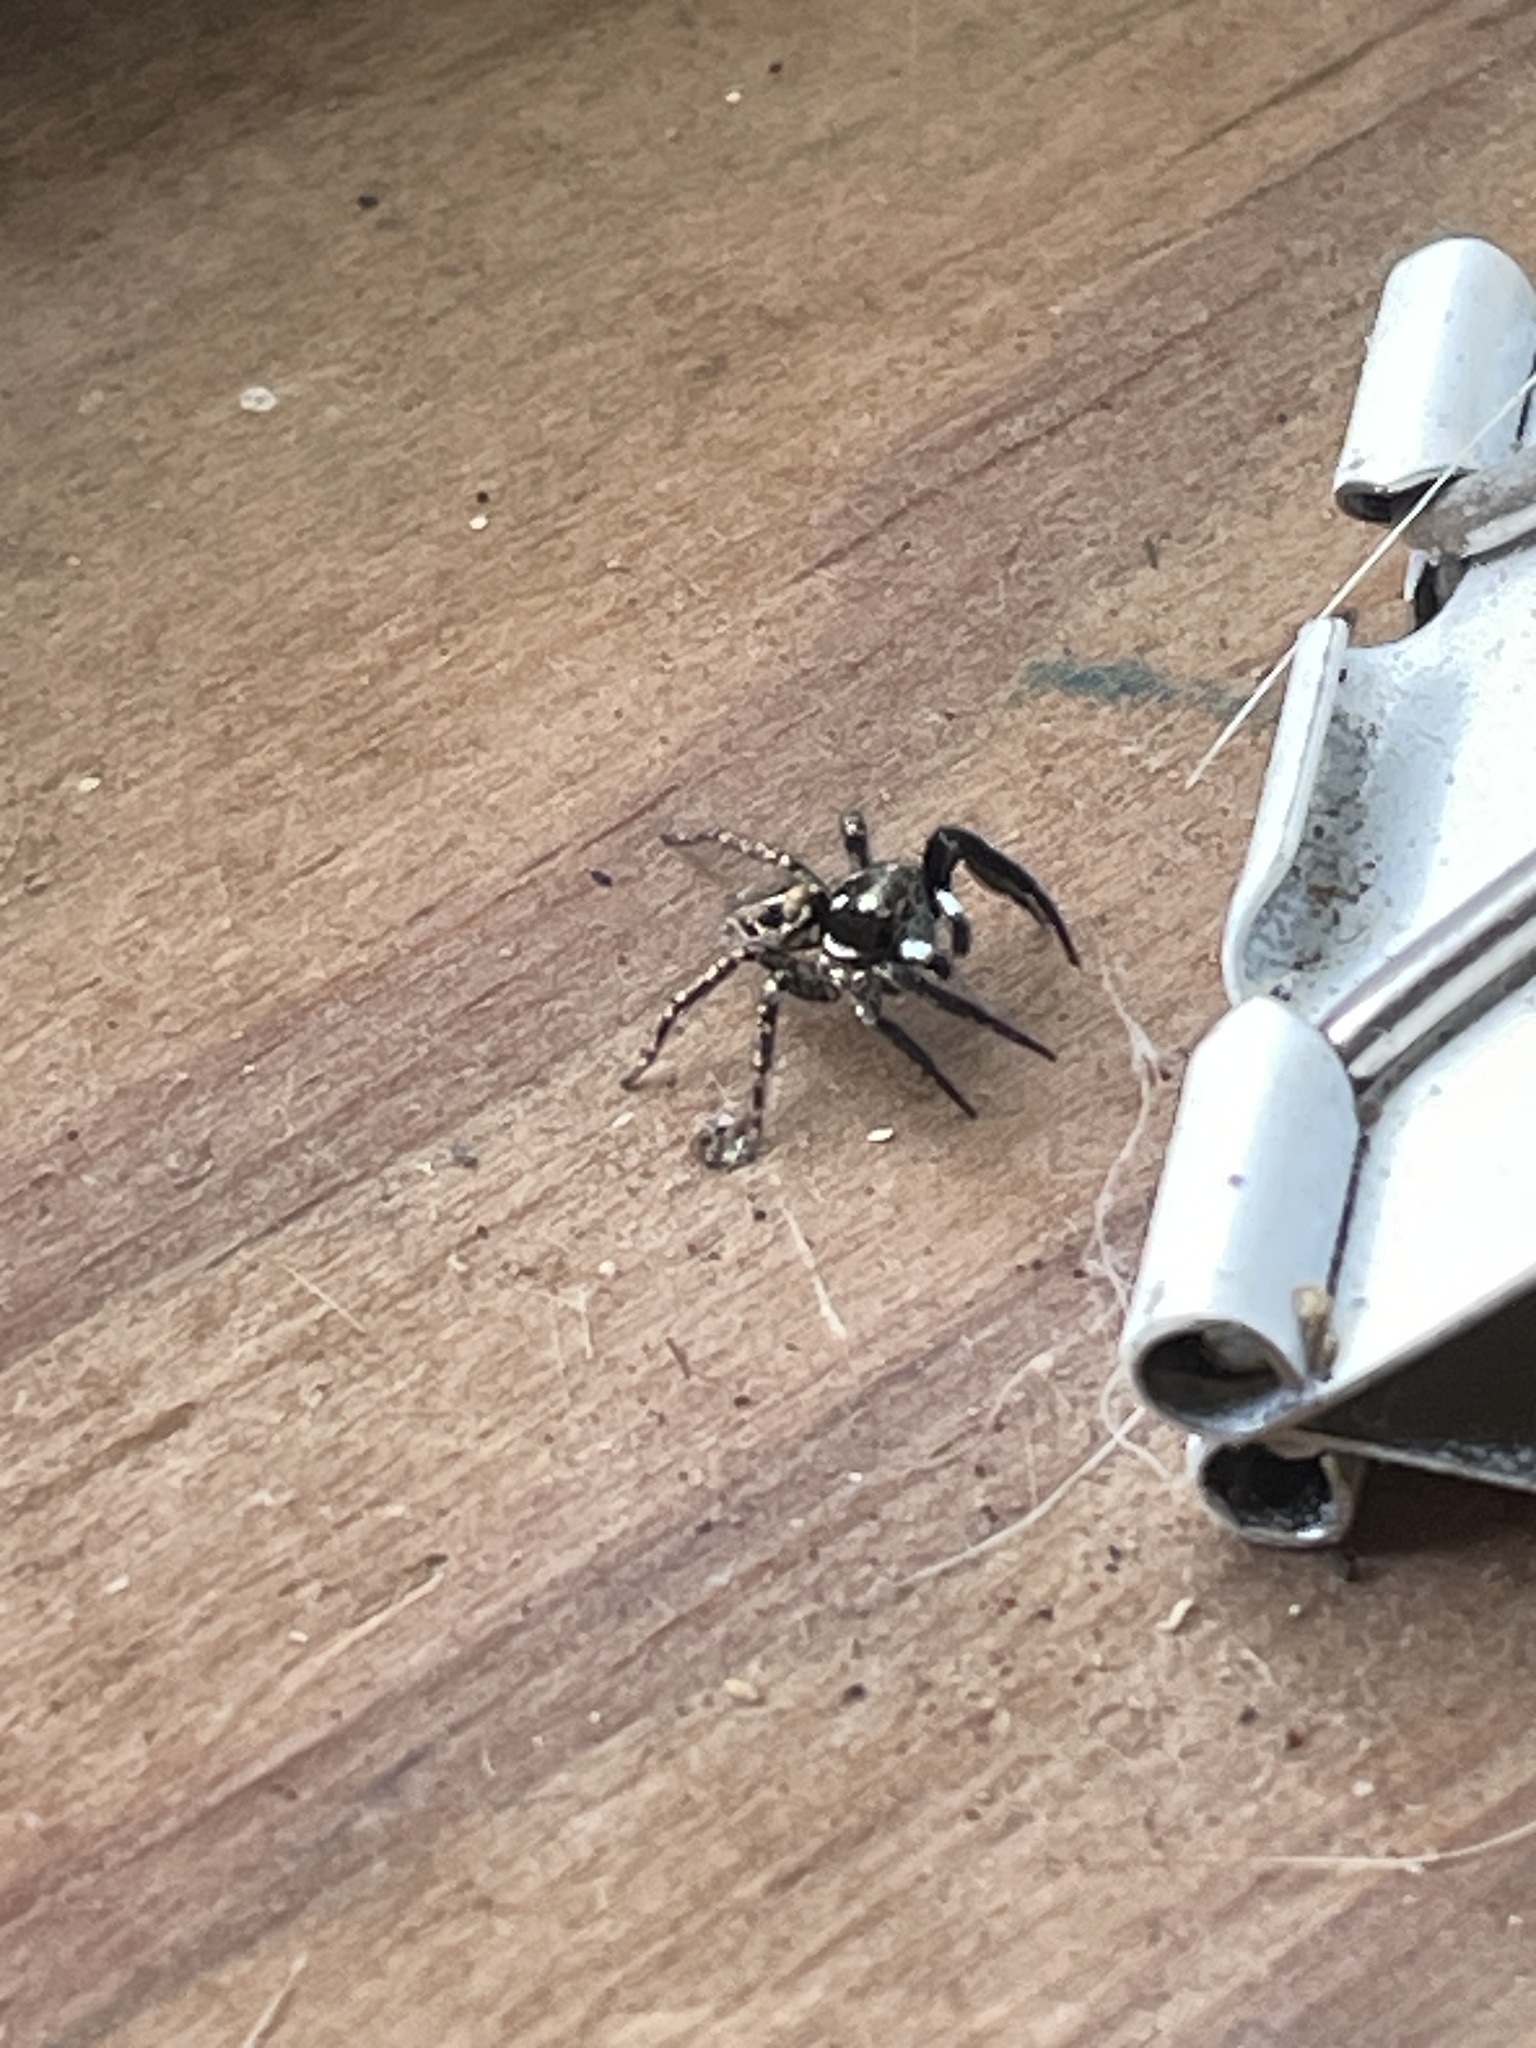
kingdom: Animalia
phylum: Arthropoda
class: Arachnida
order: Araneae
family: Salticidae
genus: Anasaitis
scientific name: Anasaitis canosa
